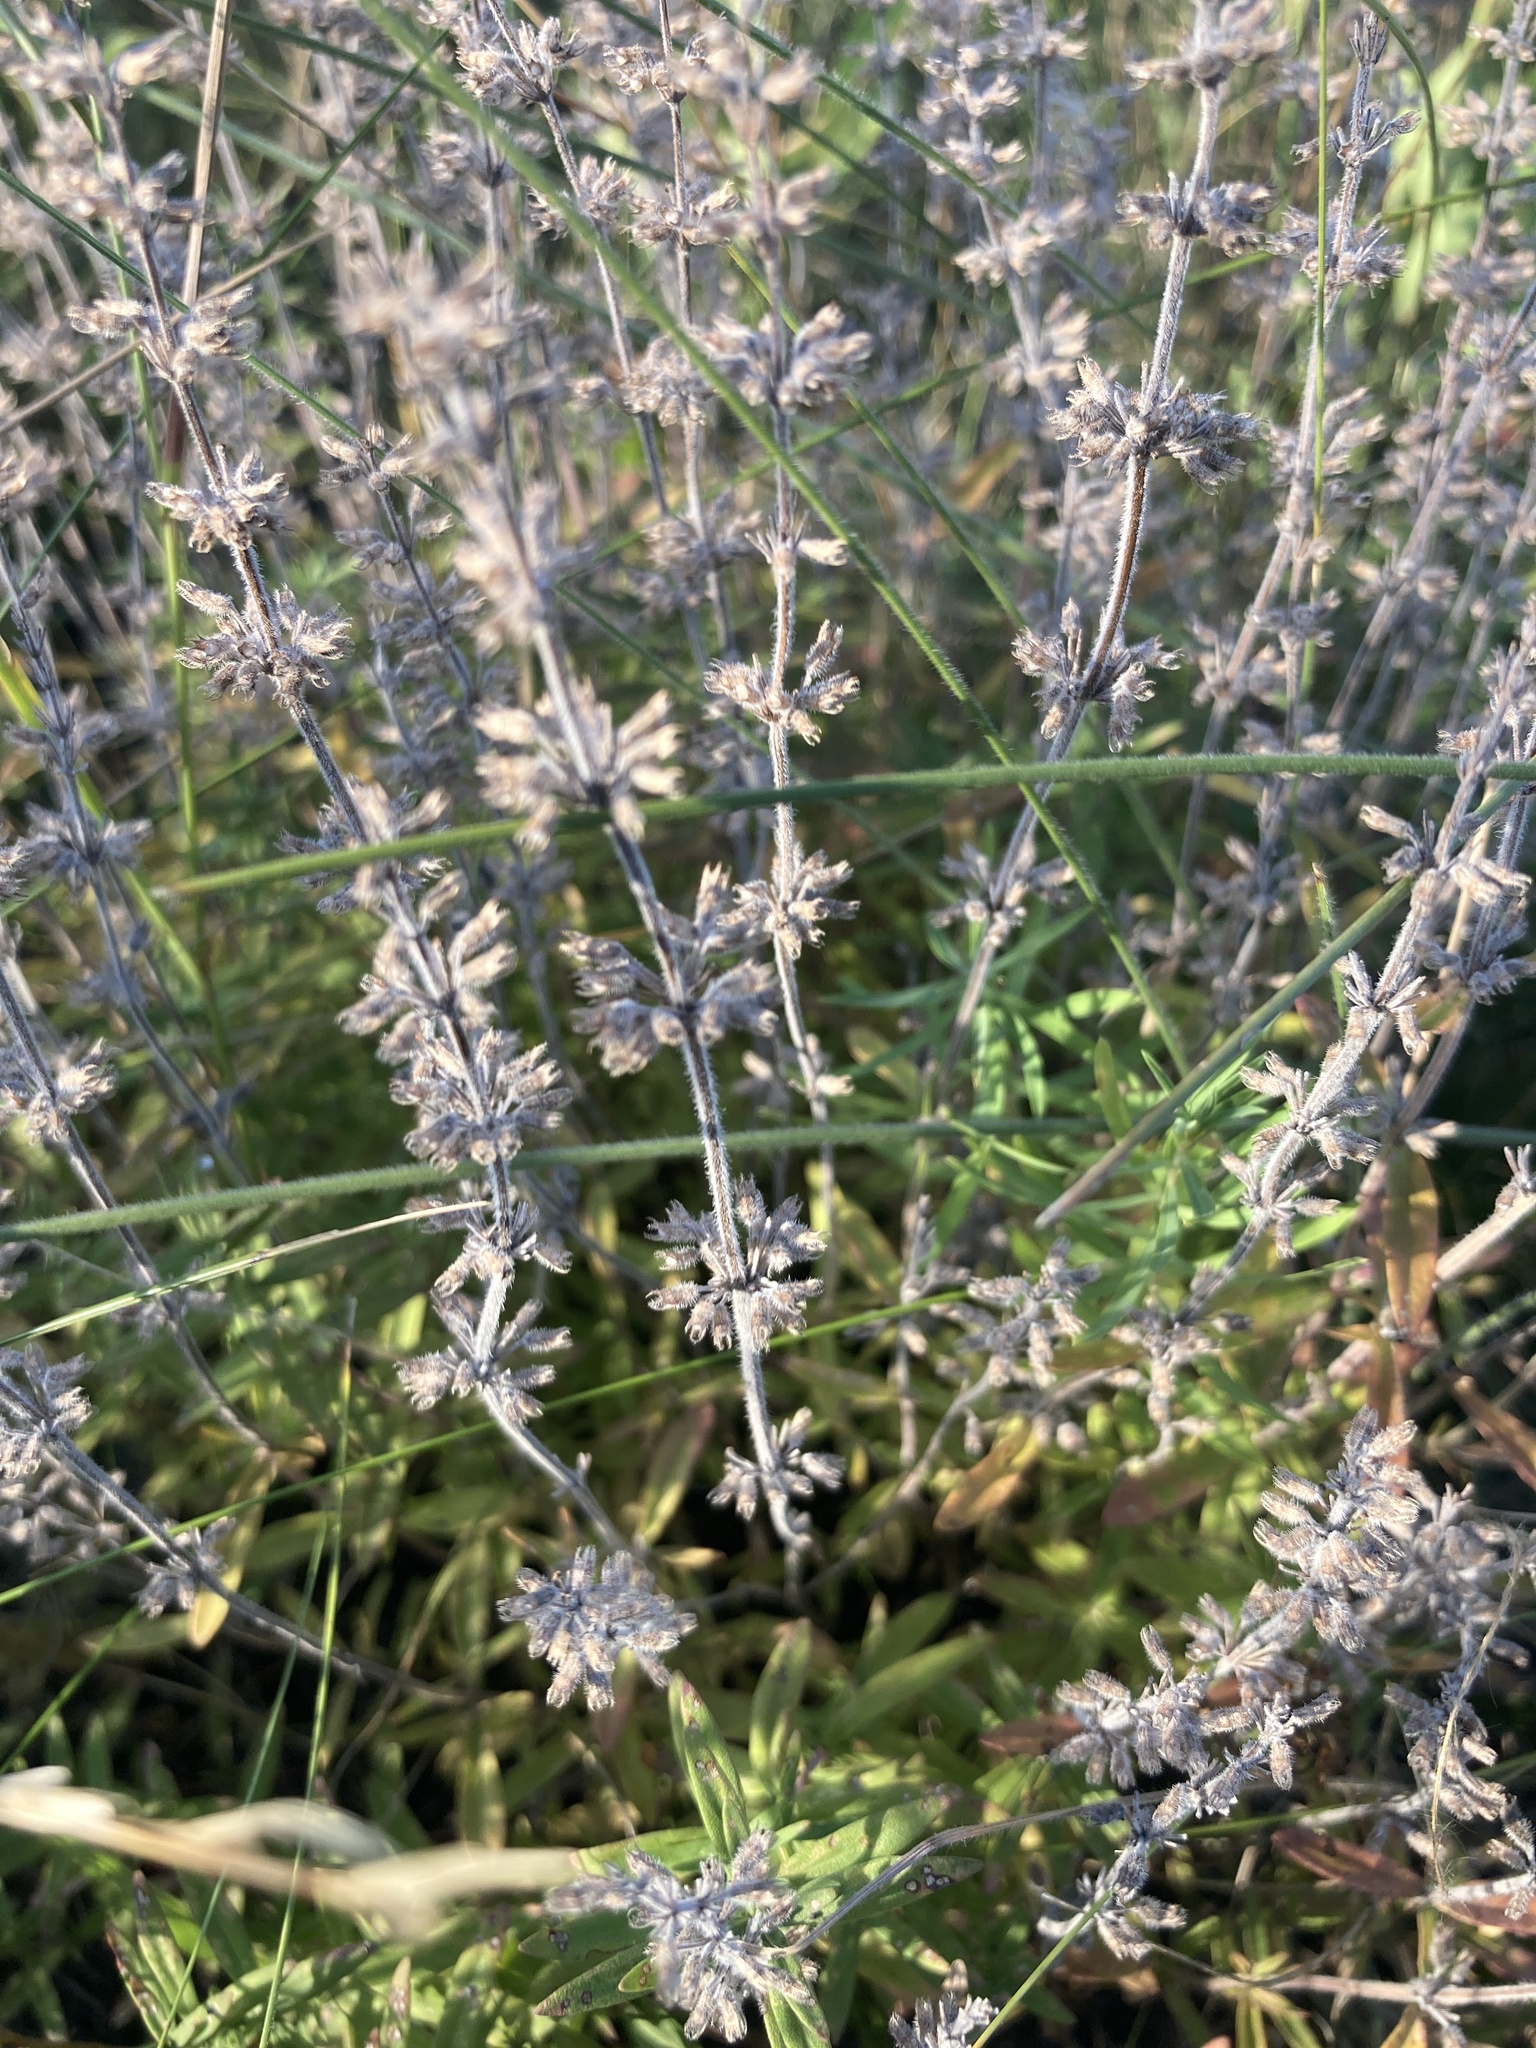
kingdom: Plantae
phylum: Tracheophyta
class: Magnoliopsida
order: Lamiales
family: Lamiaceae
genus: Thymus
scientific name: Thymus pannonicus
